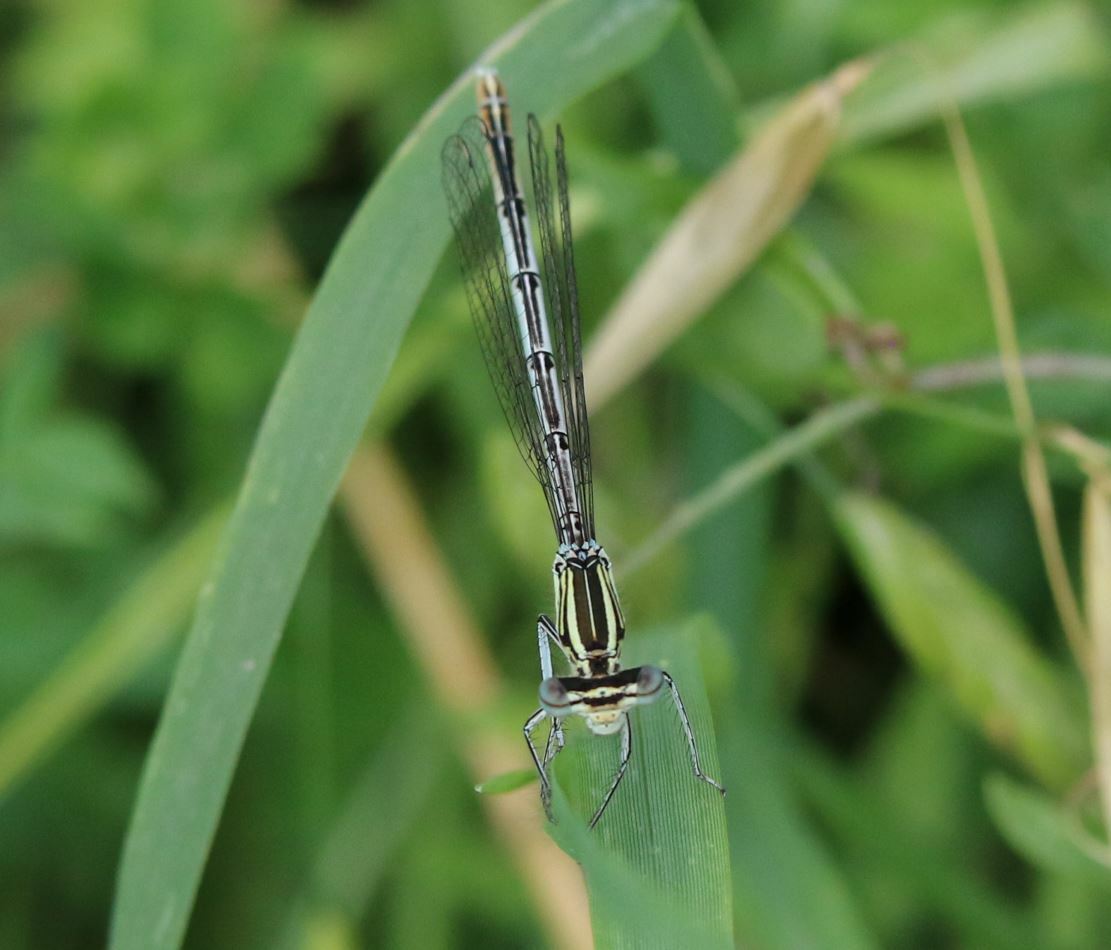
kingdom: Animalia
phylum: Arthropoda
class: Insecta
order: Odonata
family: Platycnemididae
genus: Platycnemis
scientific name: Platycnemis pennipes
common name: White-legged damselfly
